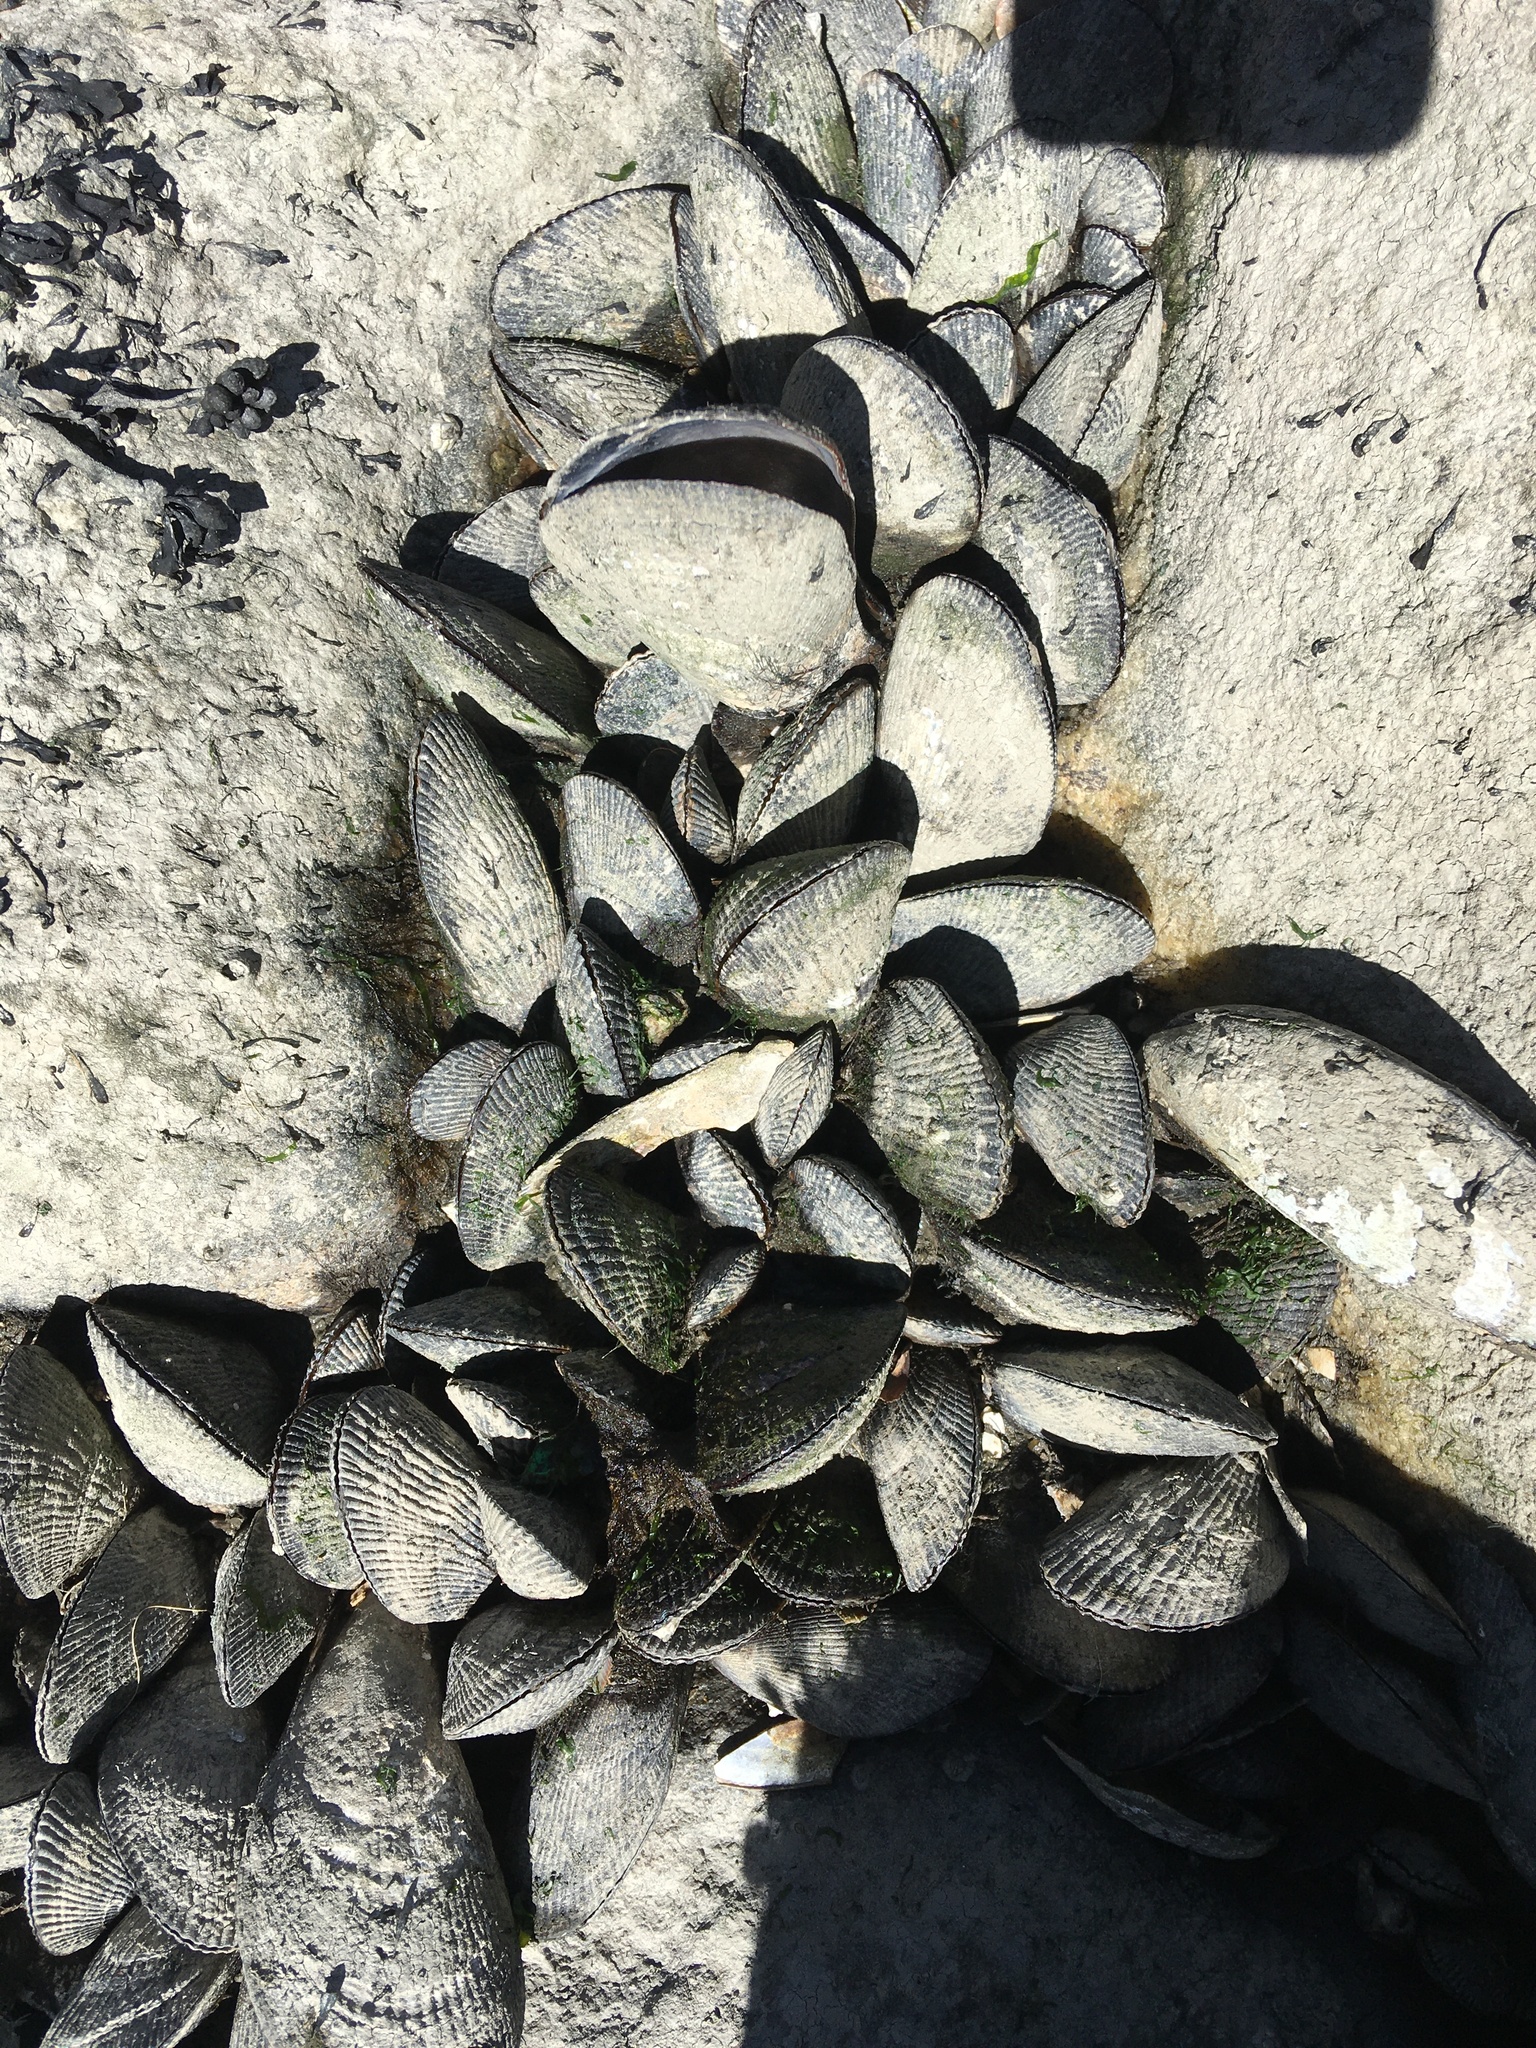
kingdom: Animalia
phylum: Mollusca
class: Bivalvia
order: Mytilida
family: Mytilidae
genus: Geukensia
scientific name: Geukensia demissa
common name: Ribbed mussel
